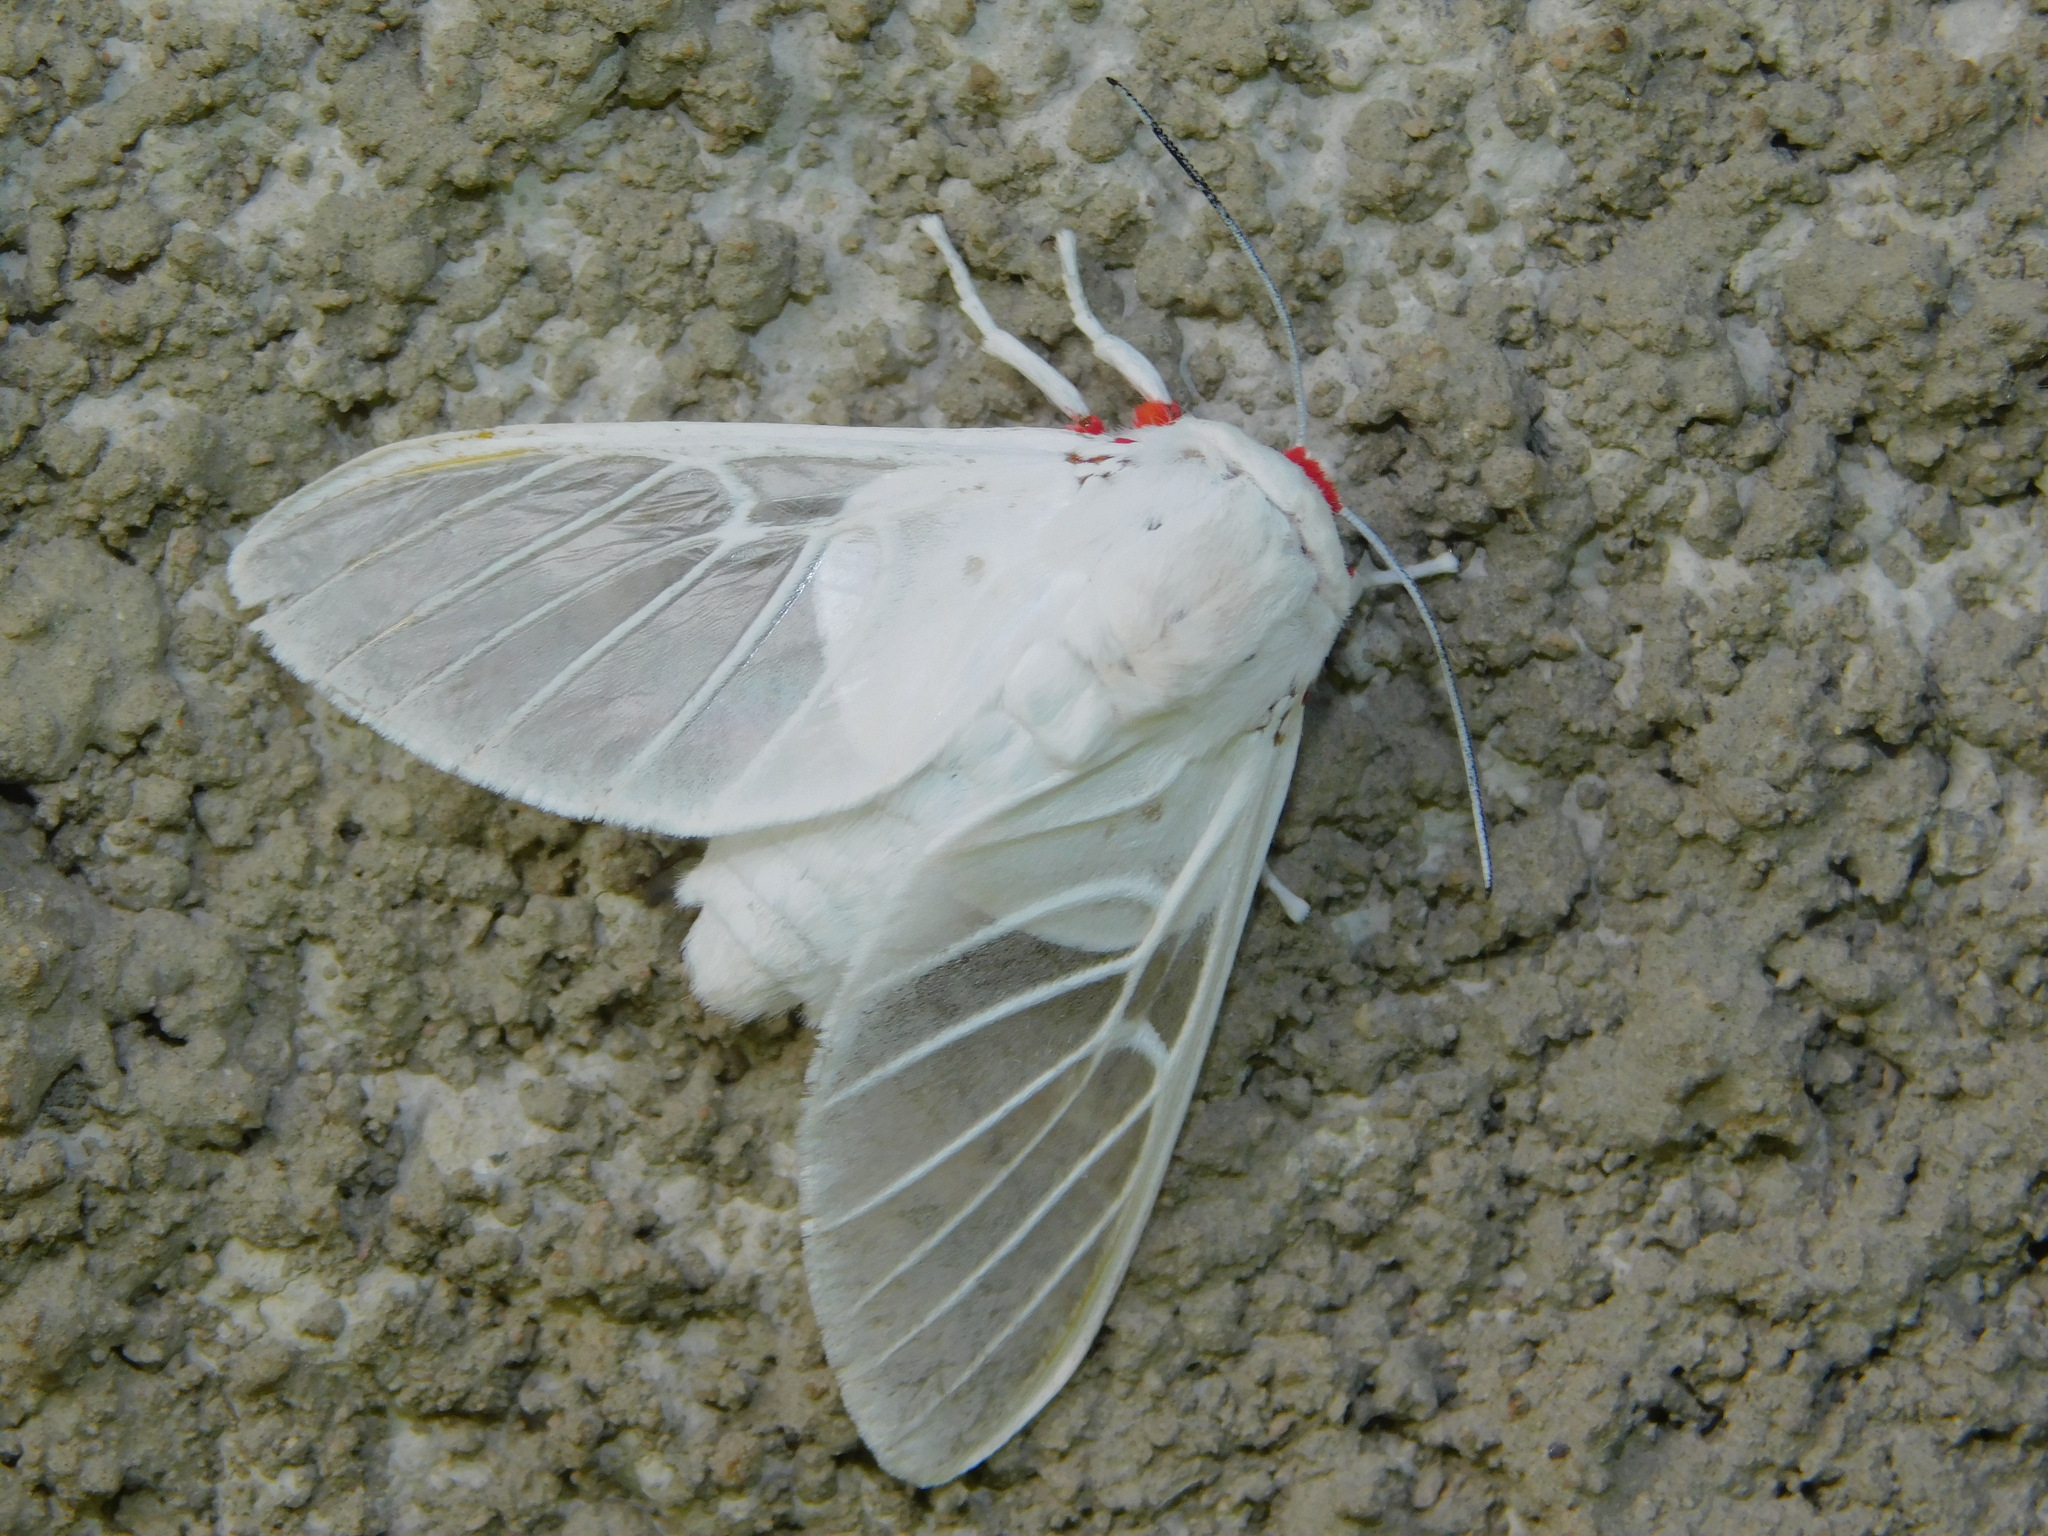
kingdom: Animalia
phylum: Arthropoda
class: Insecta
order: Lepidoptera
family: Erebidae
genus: Balacra
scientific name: Balacra pulchra
